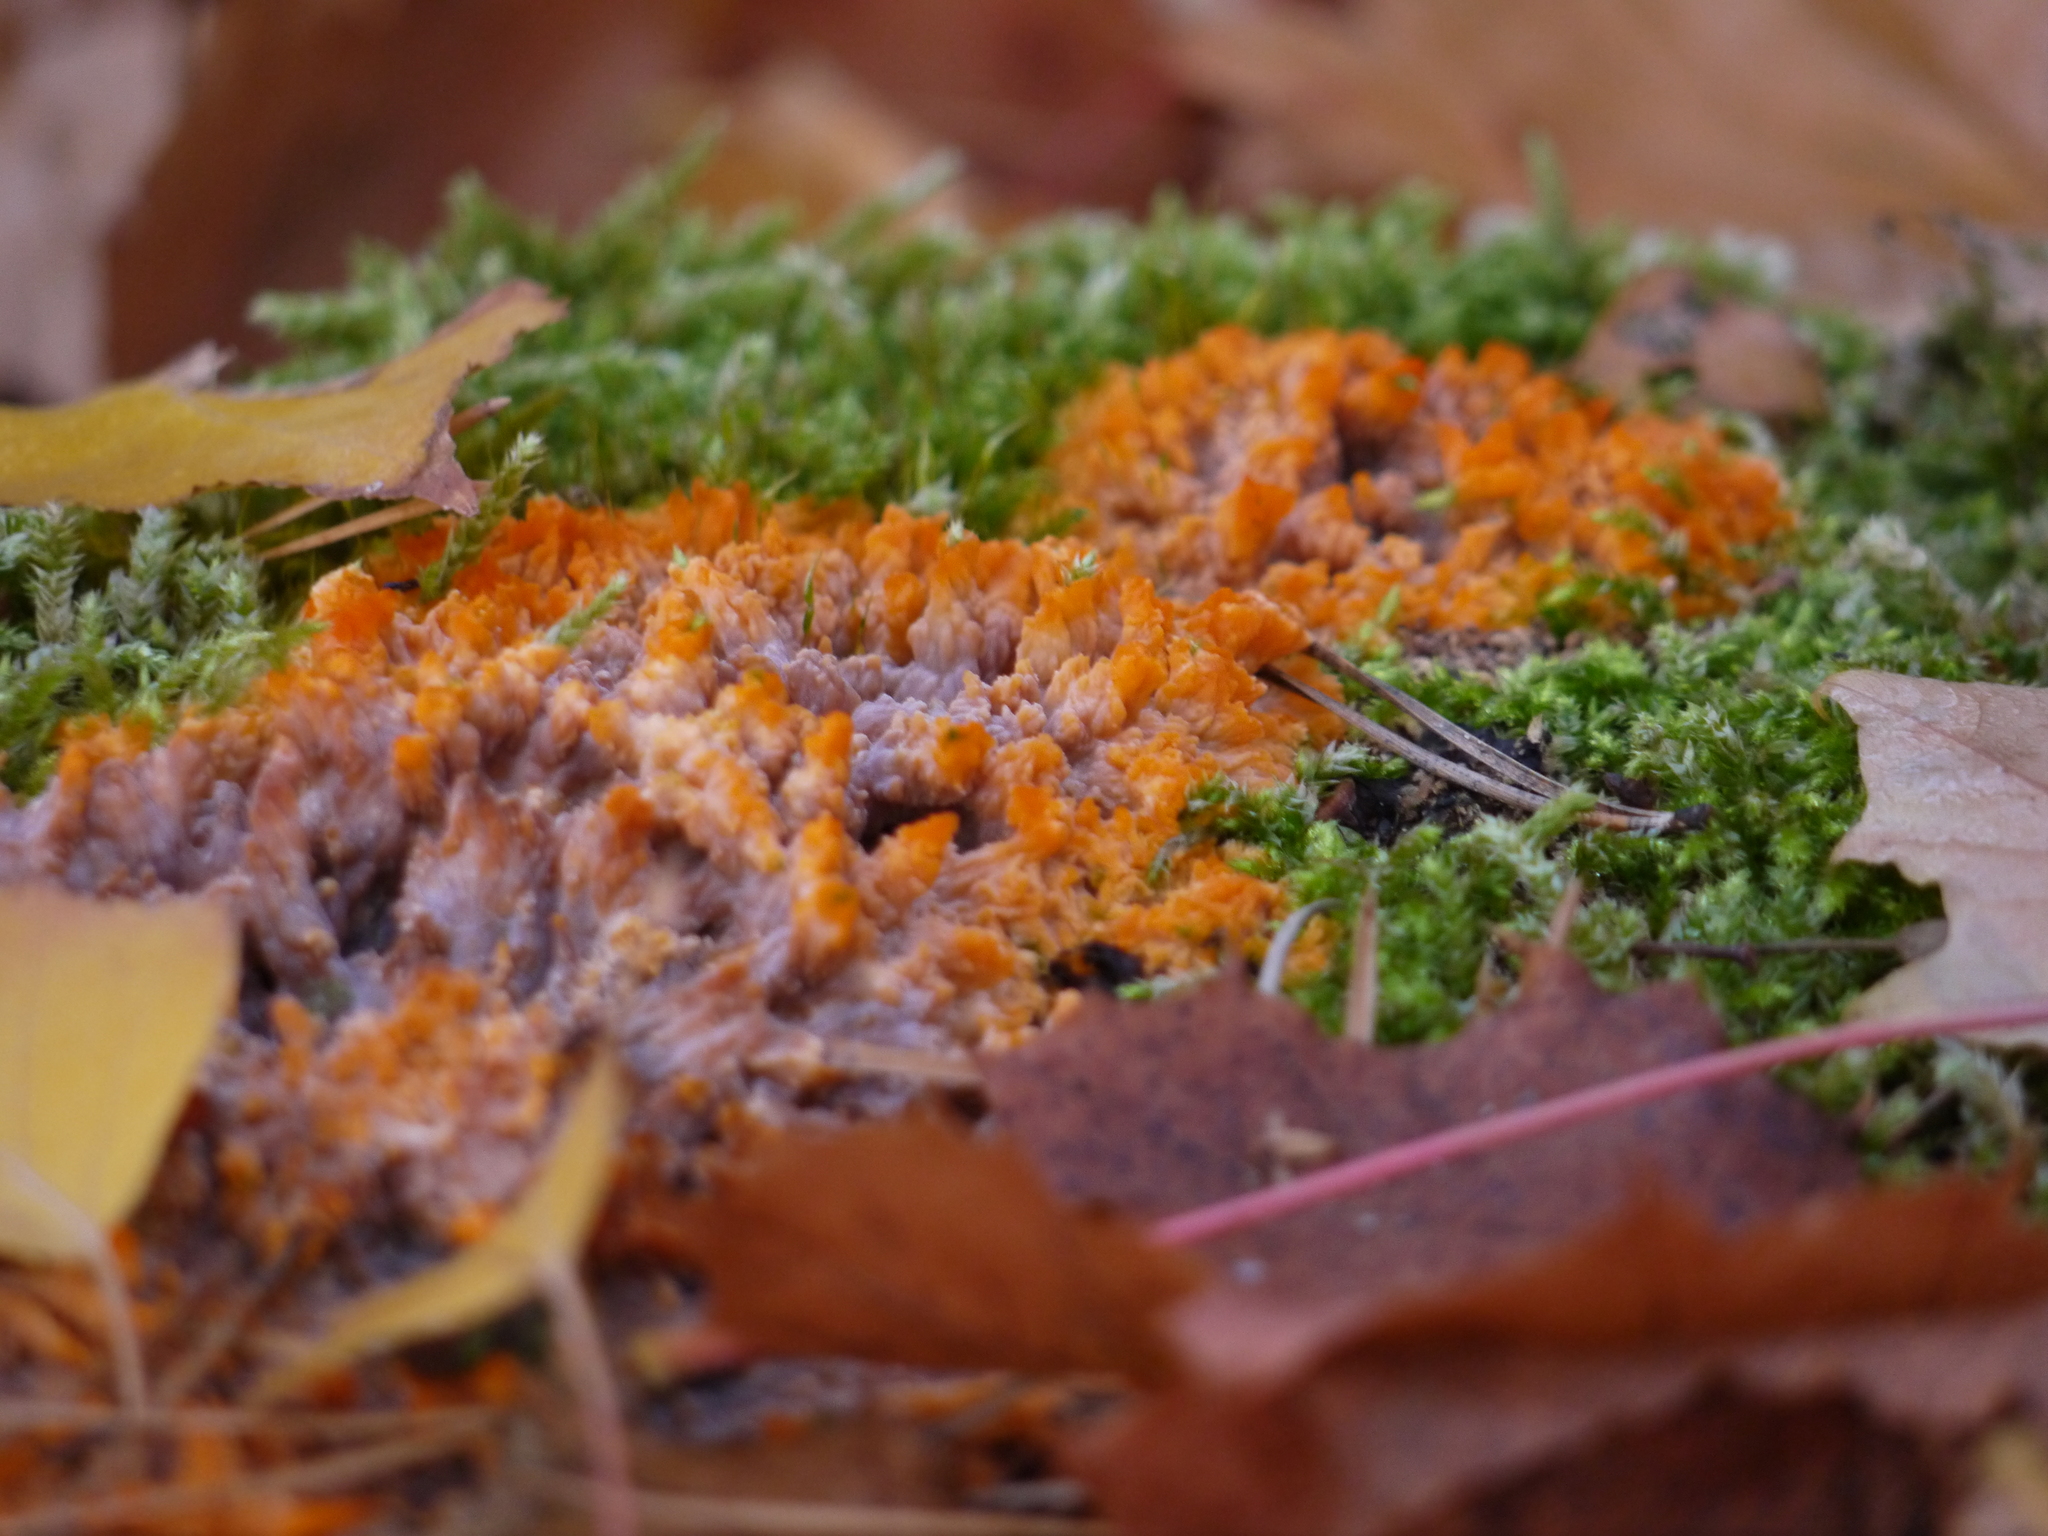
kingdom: Fungi
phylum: Basidiomycota
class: Agaricomycetes
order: Polyporales
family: Meruliaceae
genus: Phlebia
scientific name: Phlebia radiata
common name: Wrinkled crust
